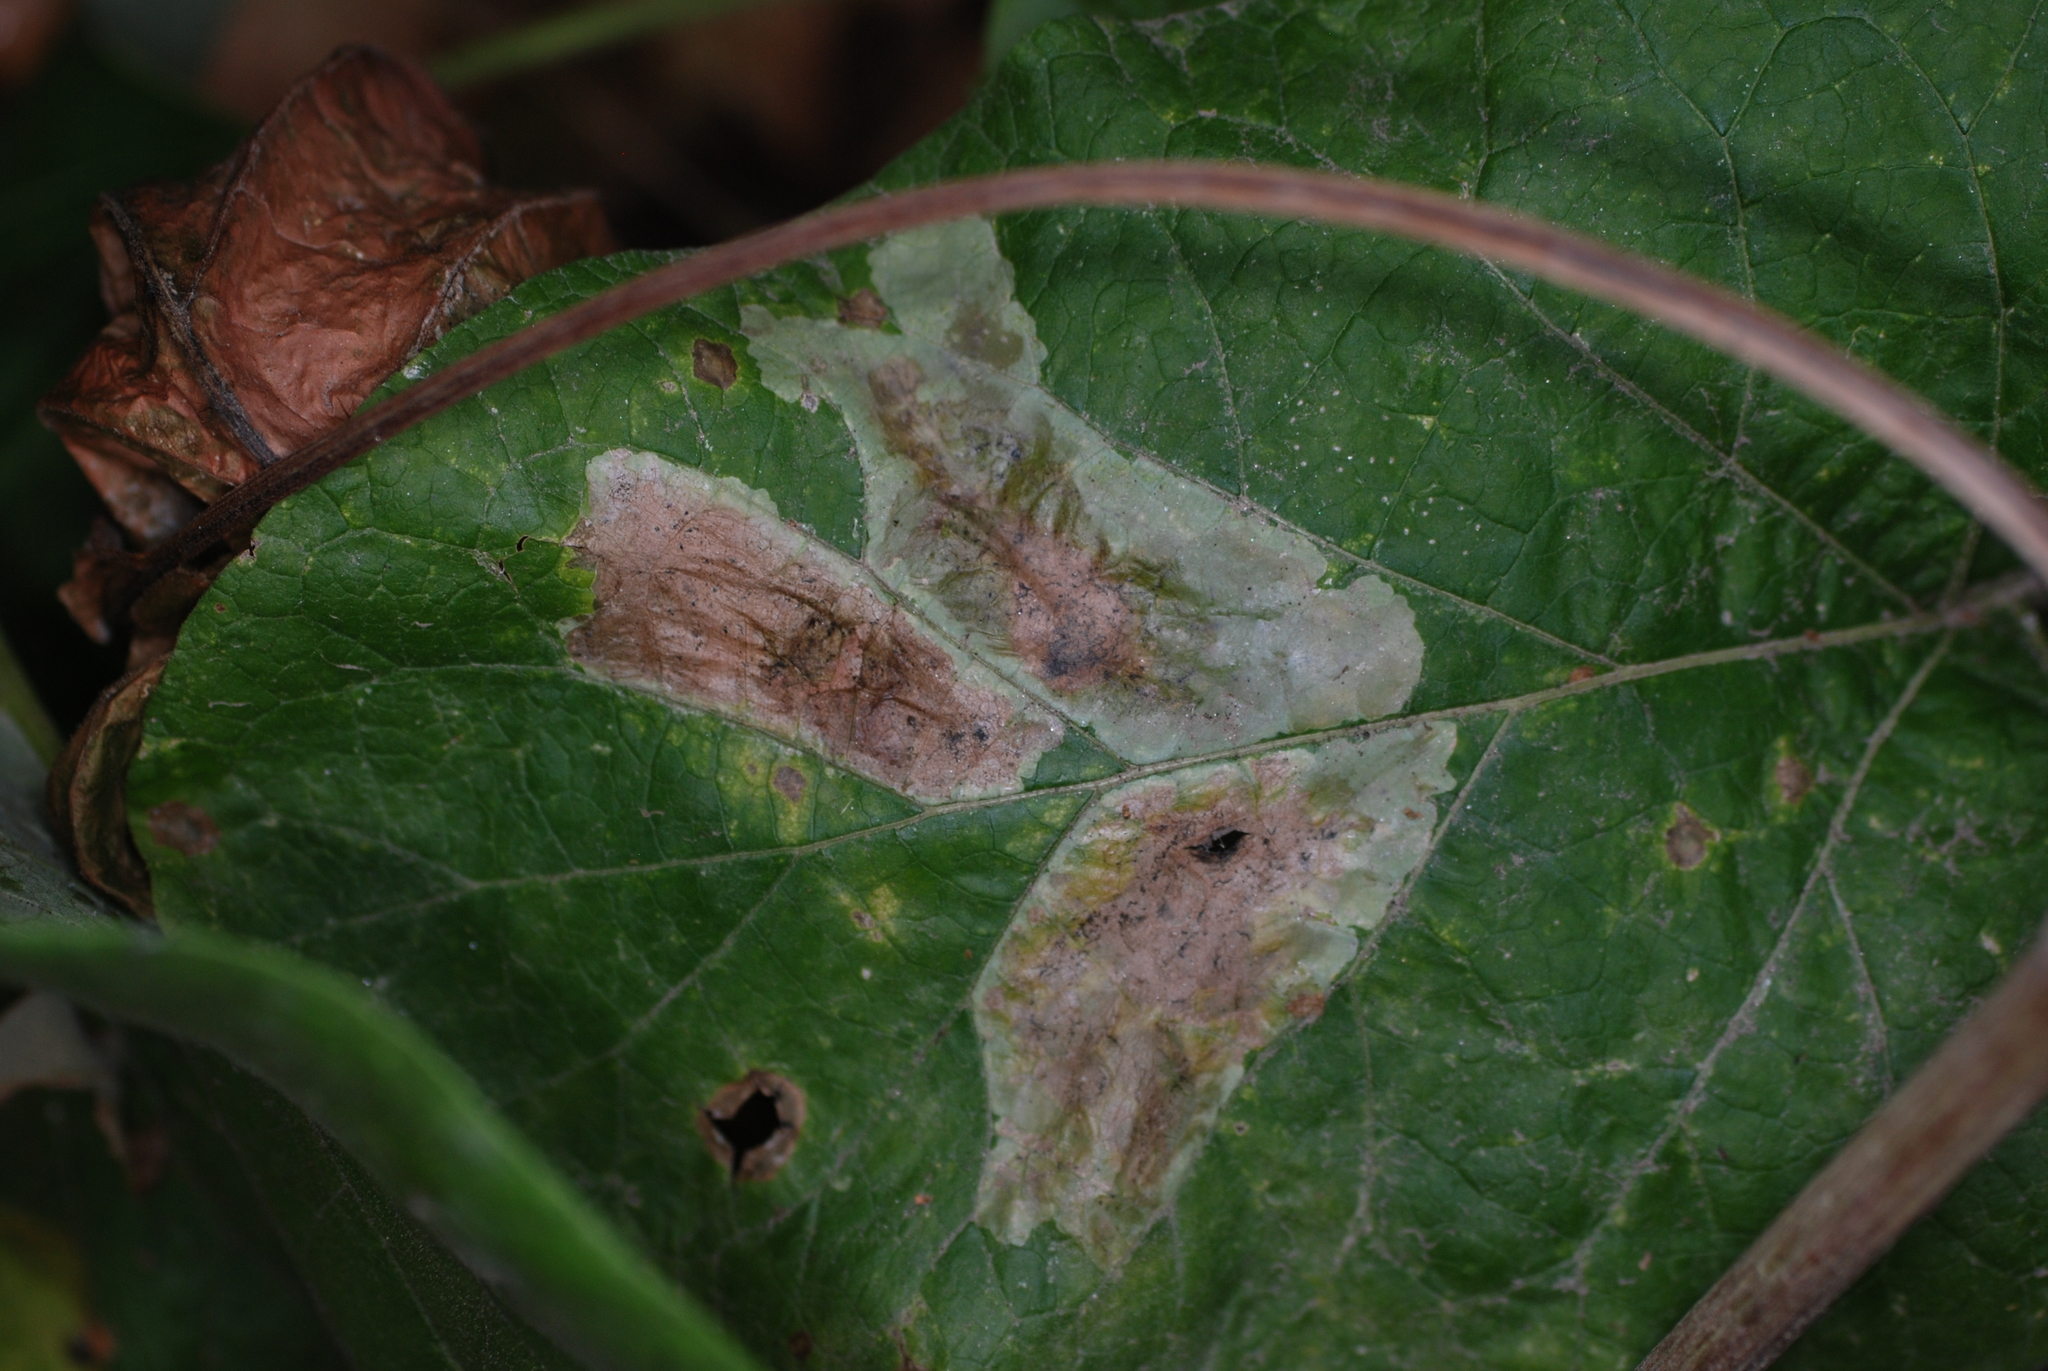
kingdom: Animalia
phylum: Arthropoda
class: Insecta
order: Diptera
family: Agromyzidae
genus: Calycomyza
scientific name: Calycomyza flavinotum
